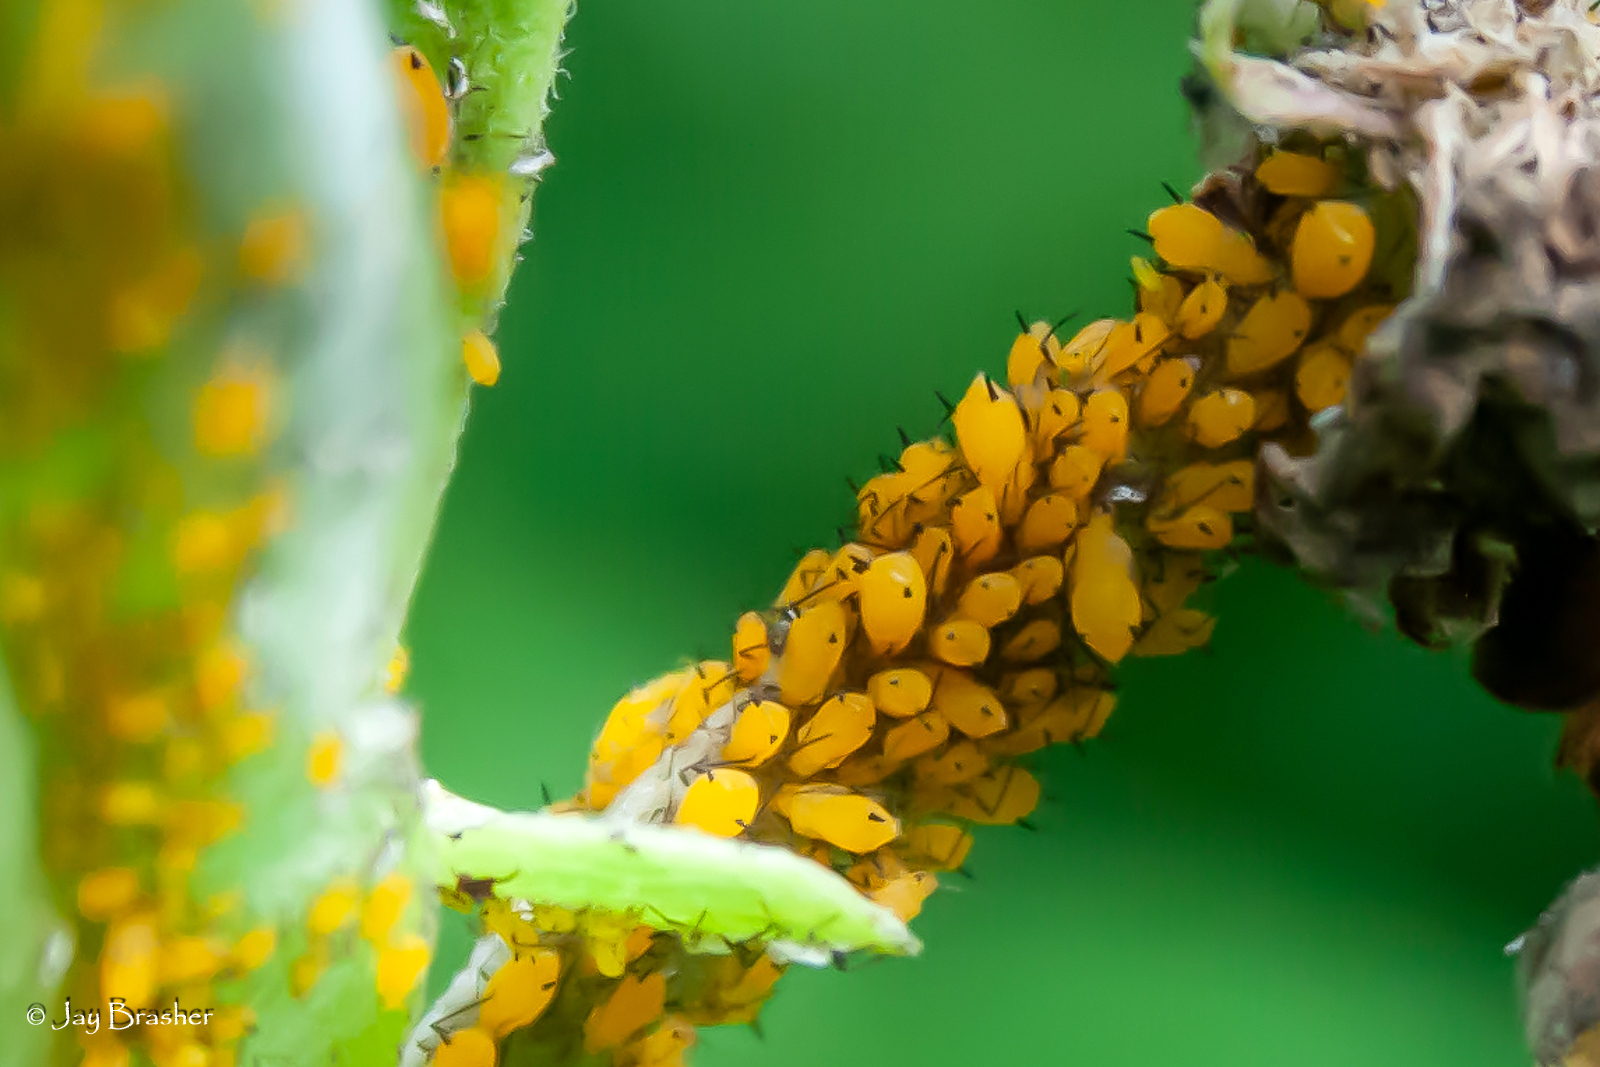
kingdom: Animalia
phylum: Arthropoda
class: Insecta
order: Hemiptera
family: Aphididae
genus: Aphis
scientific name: Aphis nerii
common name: Oleander aphid
